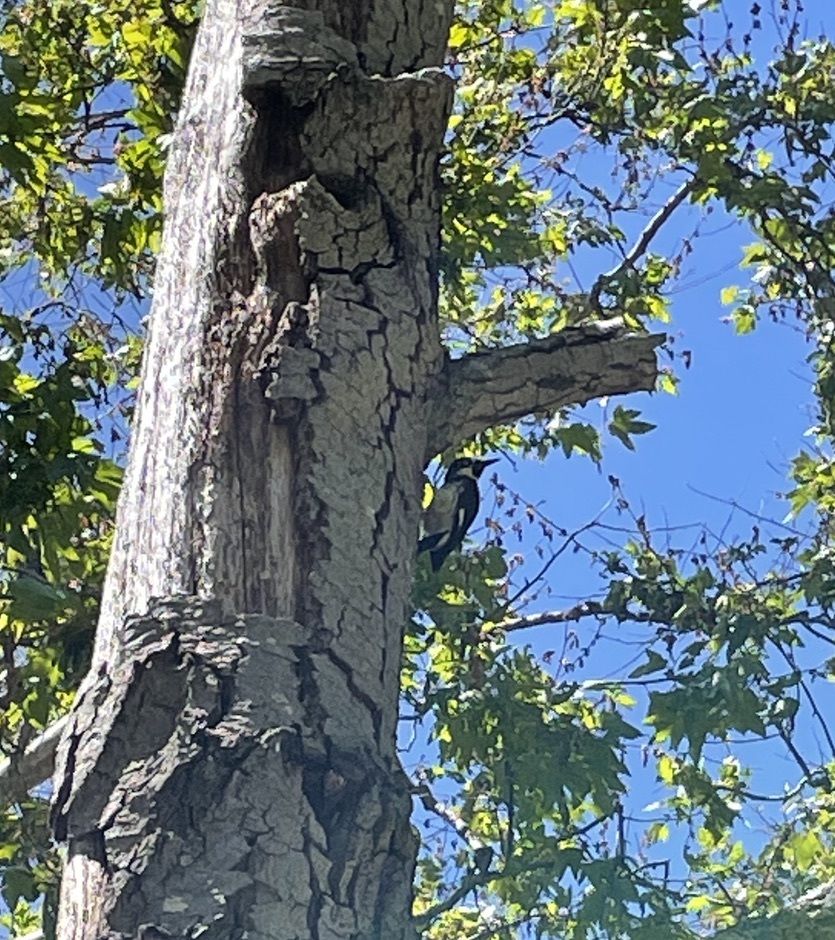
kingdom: Animalia
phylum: Chordata
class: Aves
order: Piciformes
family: Picidae
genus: Melanerpes
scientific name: Melanerpes formicivorus
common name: Acorn woodpecker
